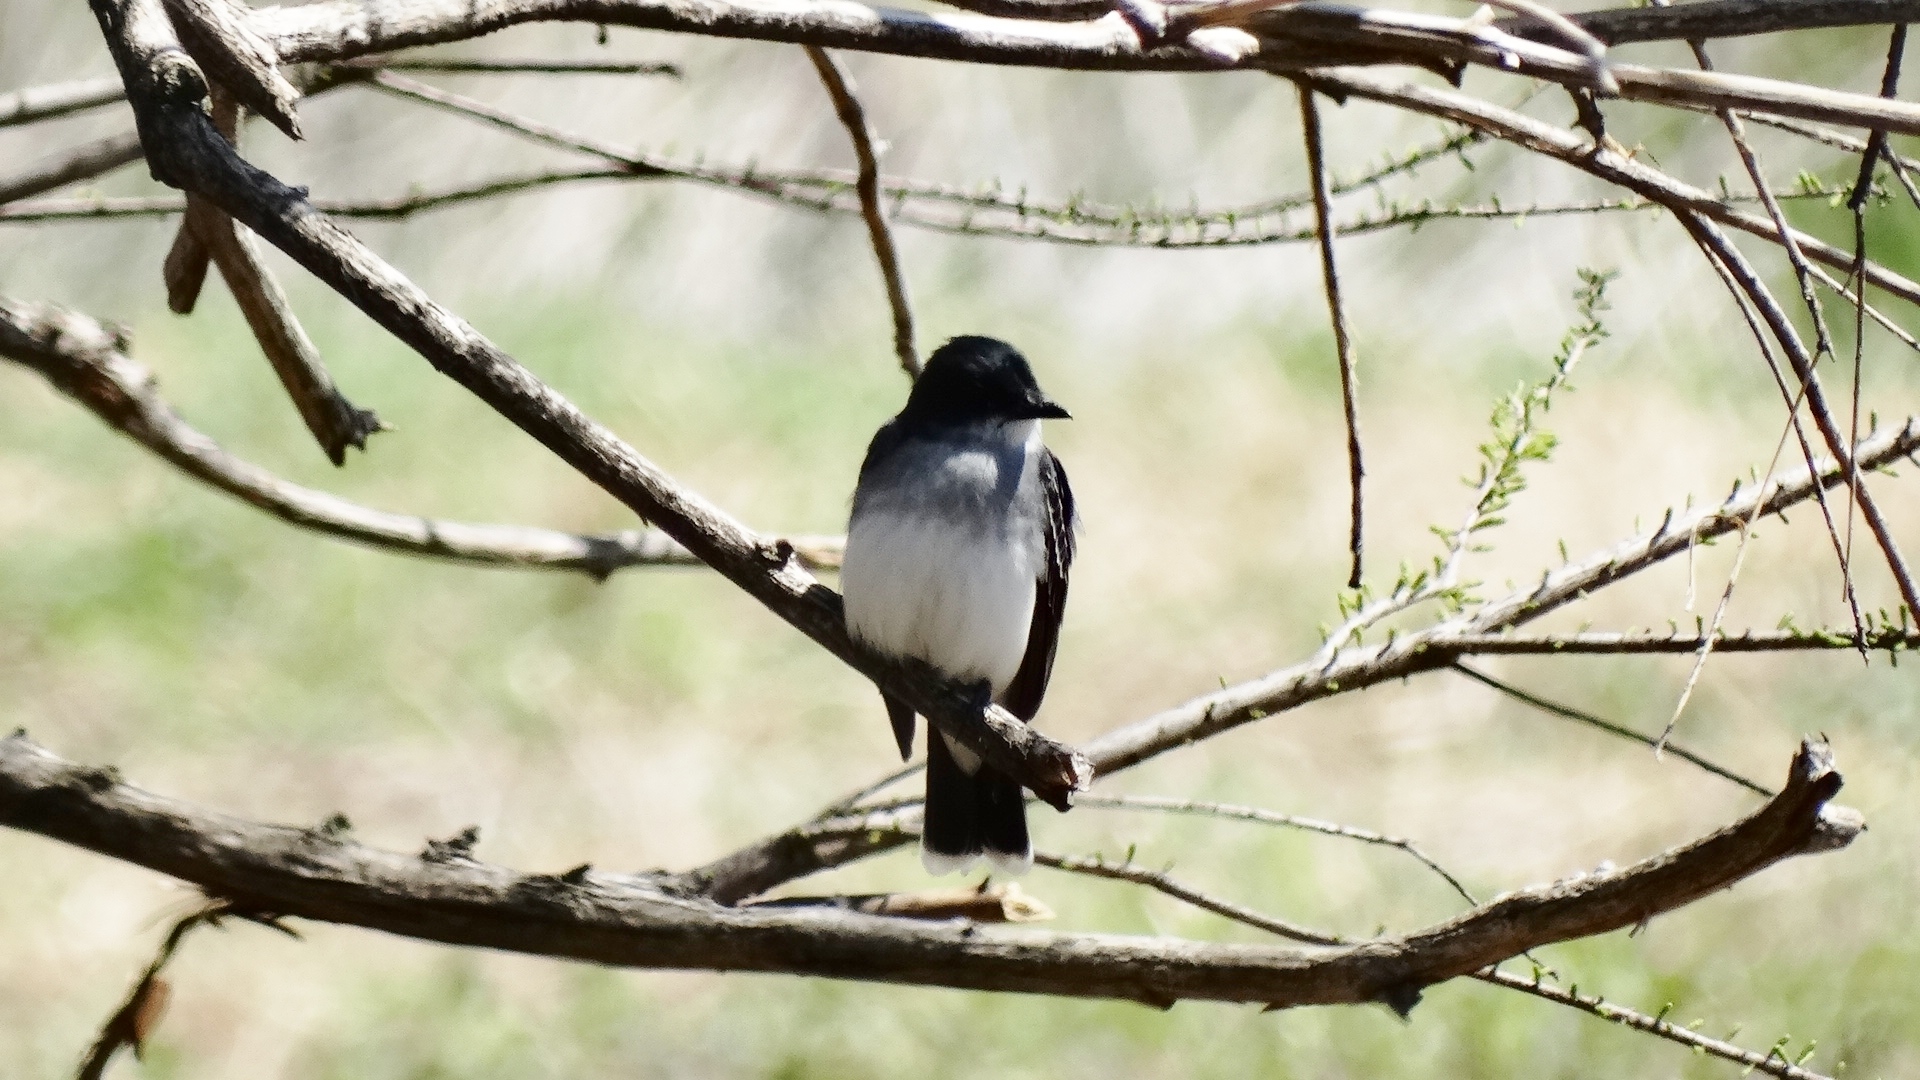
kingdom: Animalia
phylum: Chordata
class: Aves
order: Passeriformes
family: Tyrannidae
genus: Tyrannus
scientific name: Tyrannus tyrannus
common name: Eastern kingbird
